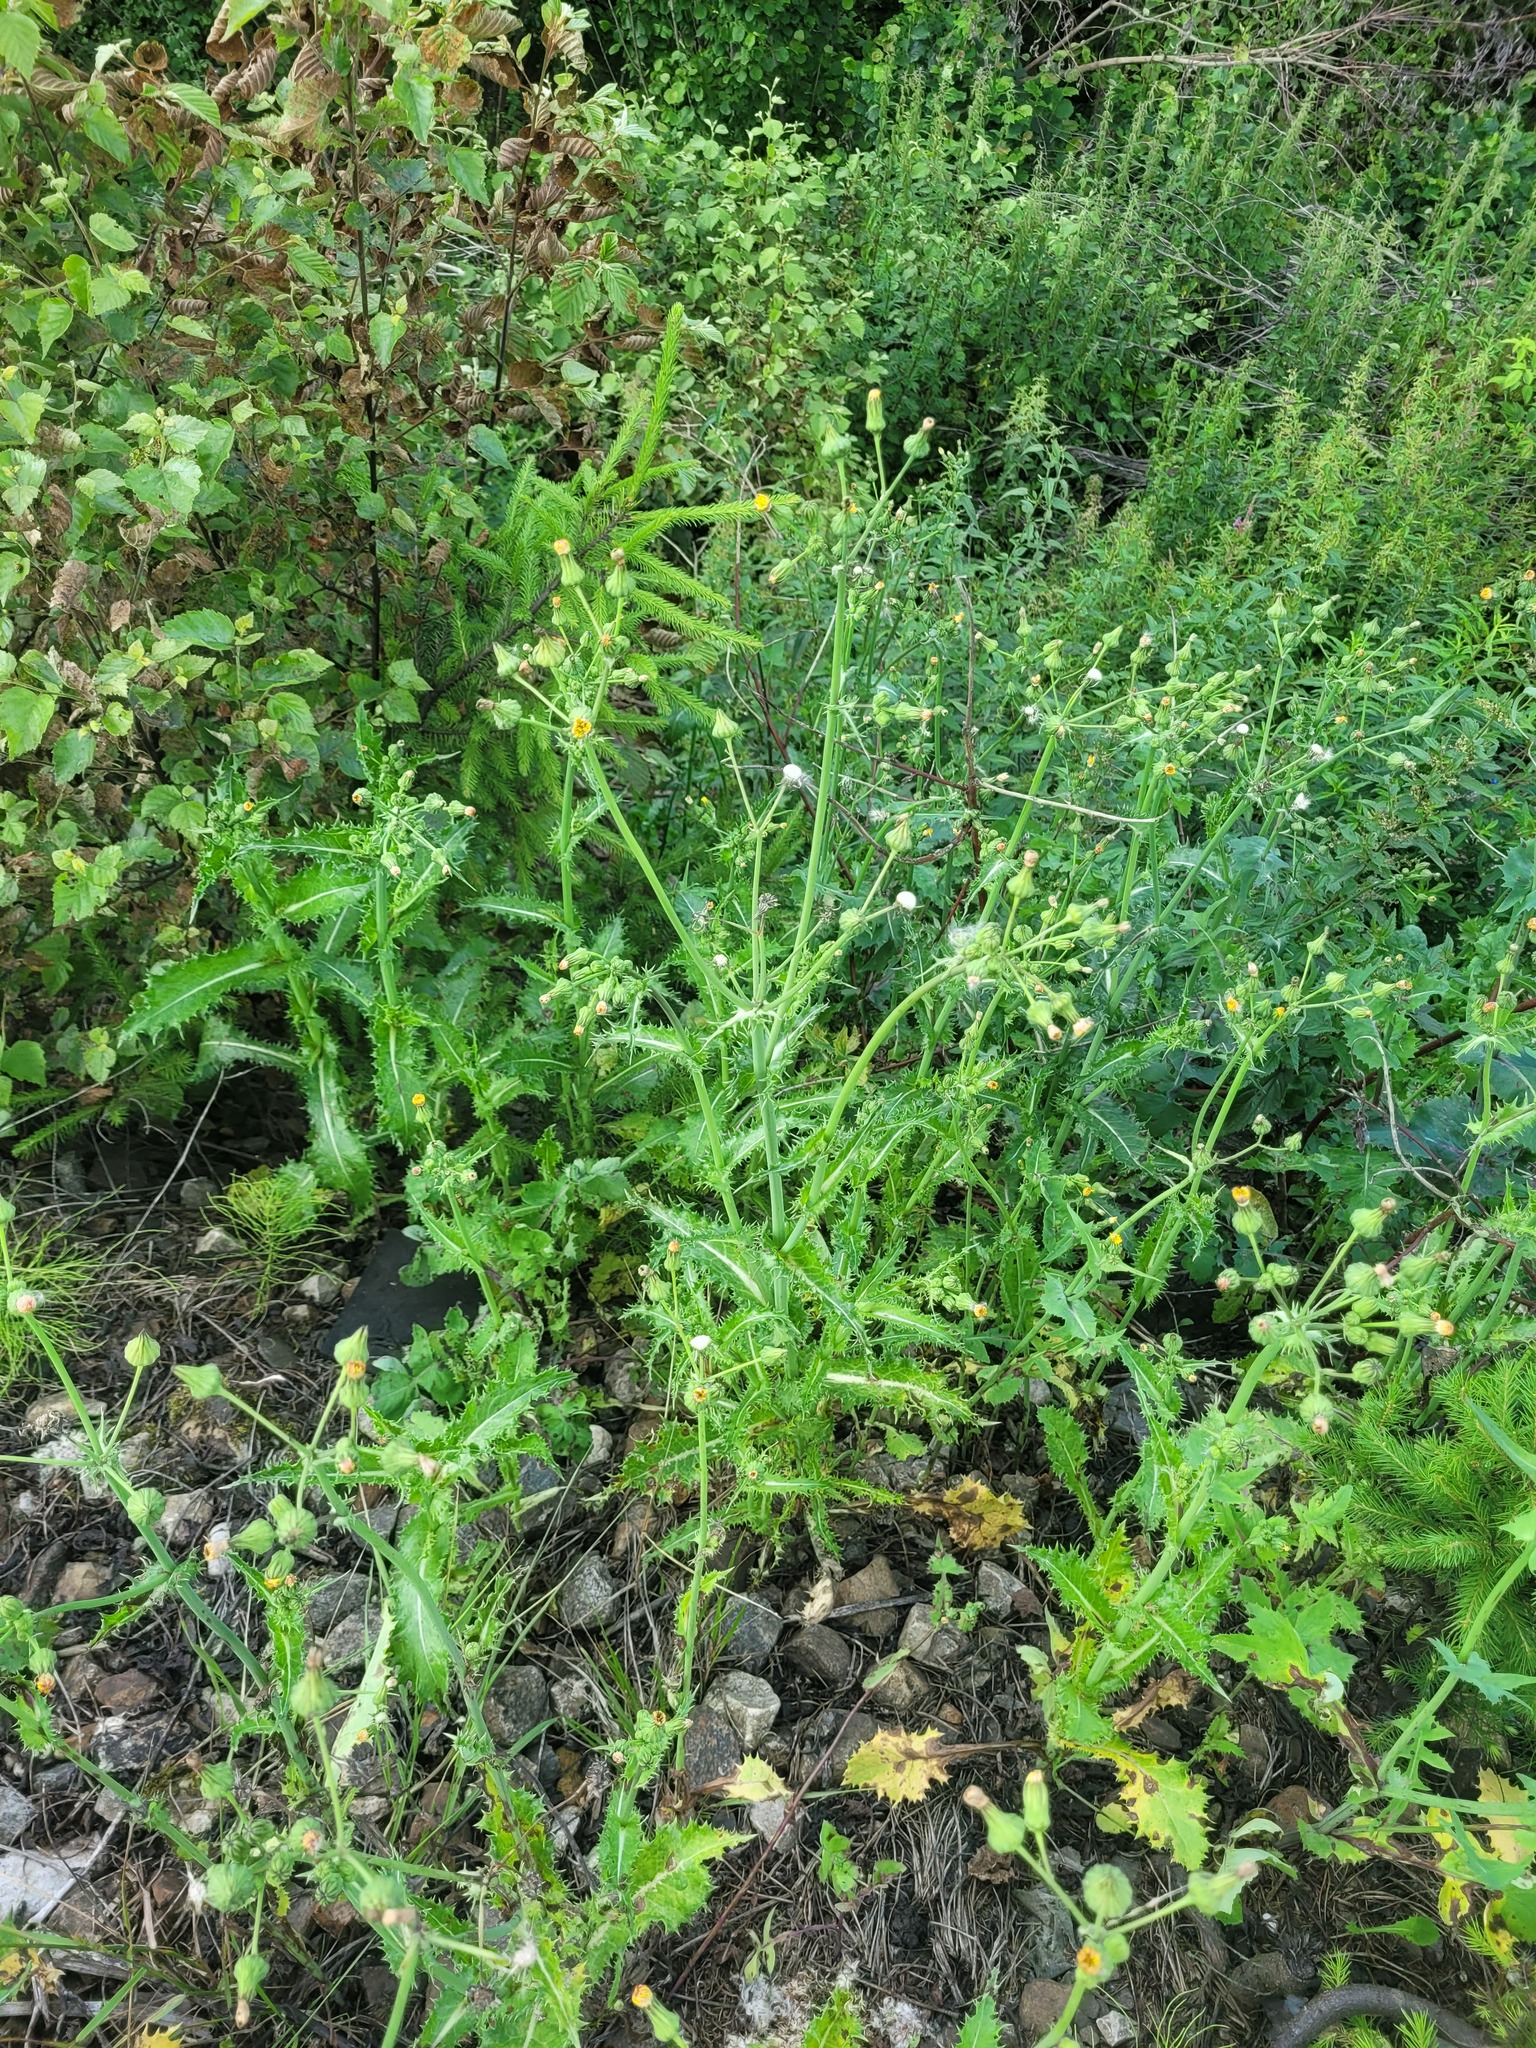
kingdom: Plantae
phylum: Tracheophyta
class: Magnoliopsida
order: Asterales
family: Asteraceae
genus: Sonchus
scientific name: Sonchus asper
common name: Prickly sow-thistle
